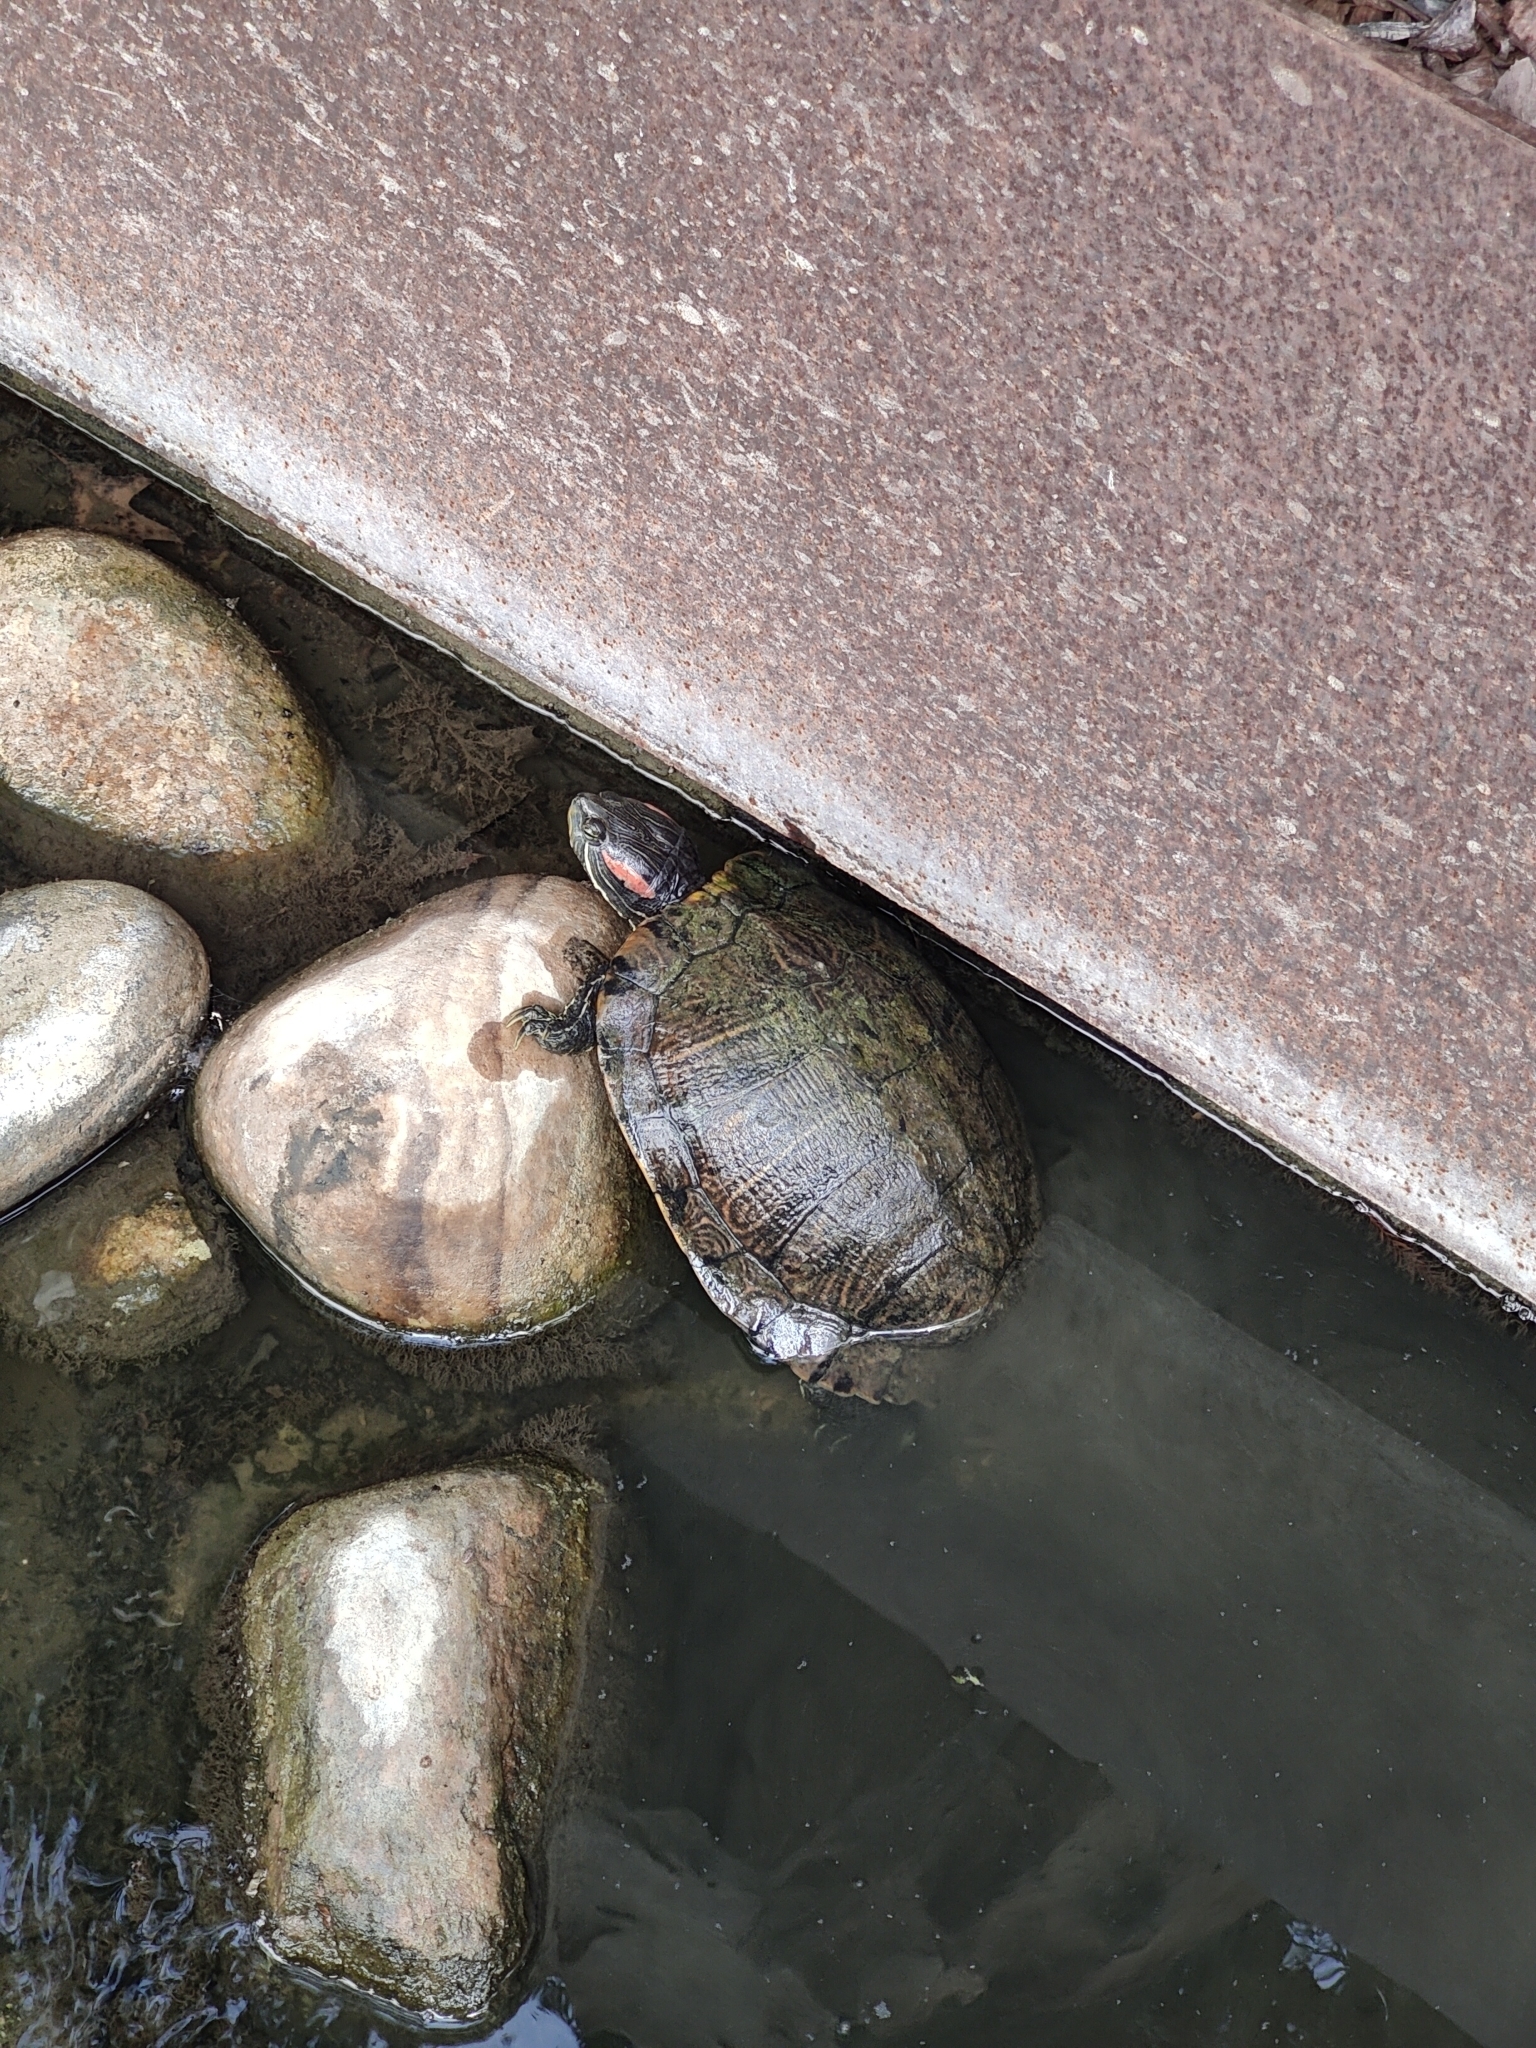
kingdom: Animalia
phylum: Chordata
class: Testudines
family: Emydidae
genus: Trachemys
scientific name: Trachemys scripta
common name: Slider
